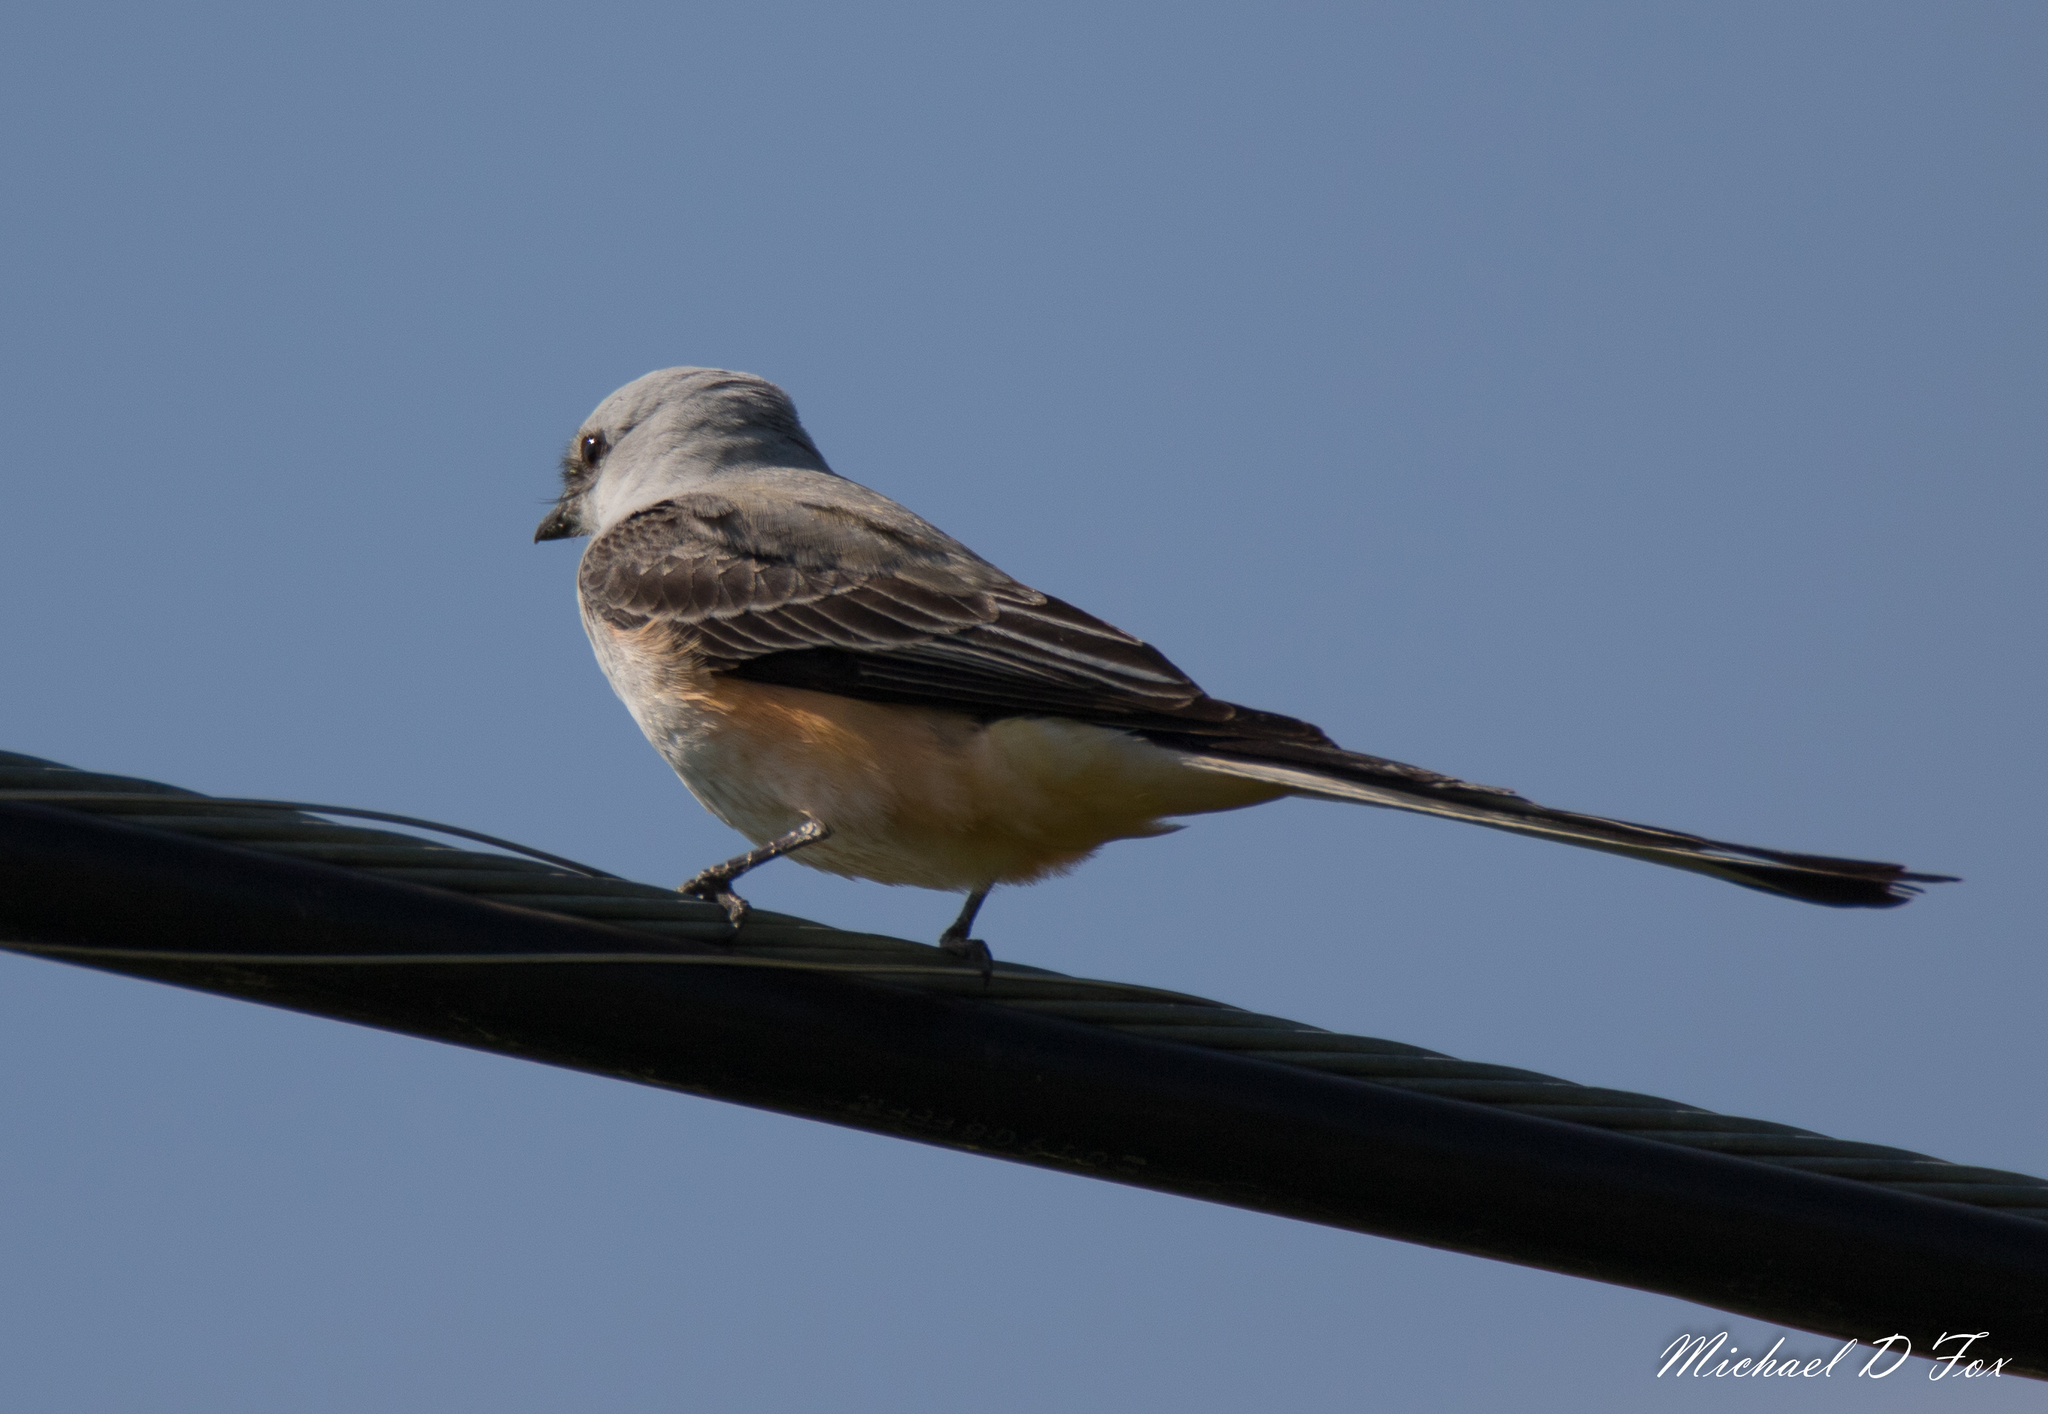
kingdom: Animalia
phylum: Chordata
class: Aves
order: Passeriformes
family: Tyrannidae
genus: Tyrannus
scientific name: Tyrannus forficatus
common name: Scissor-tailed flycatcher
